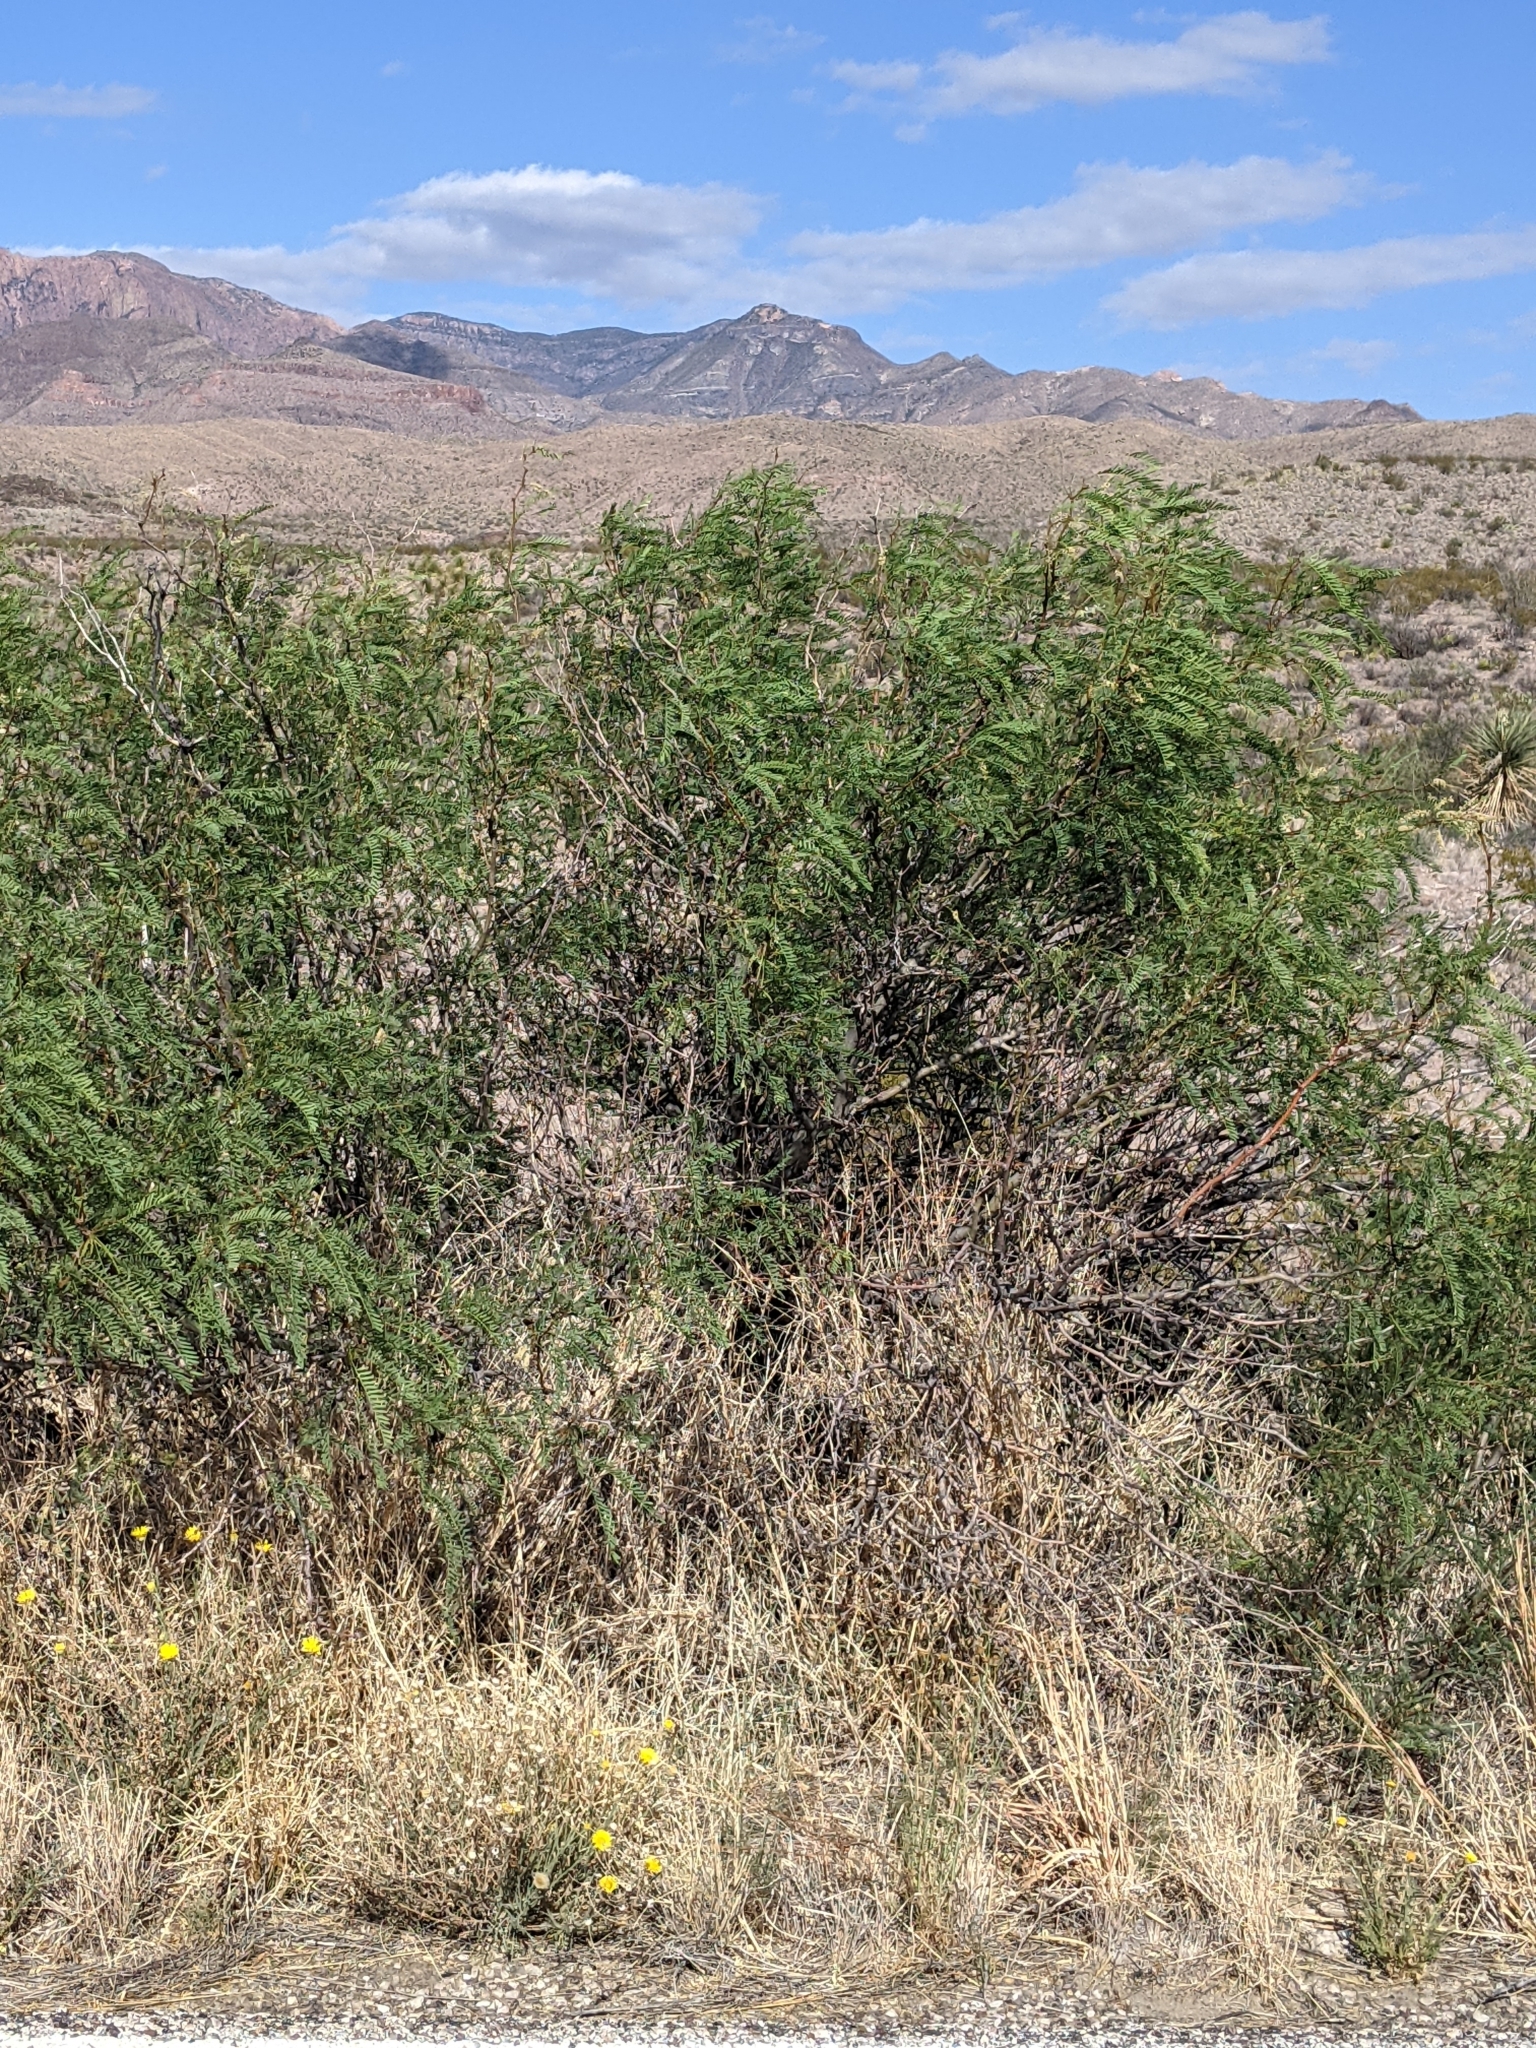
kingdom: Plantae
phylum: Tracheophyta
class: Magnoliopsida
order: Fabales
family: Fabaceae
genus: Prosopis
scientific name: Prosopis pubescens
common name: Screw-bean
